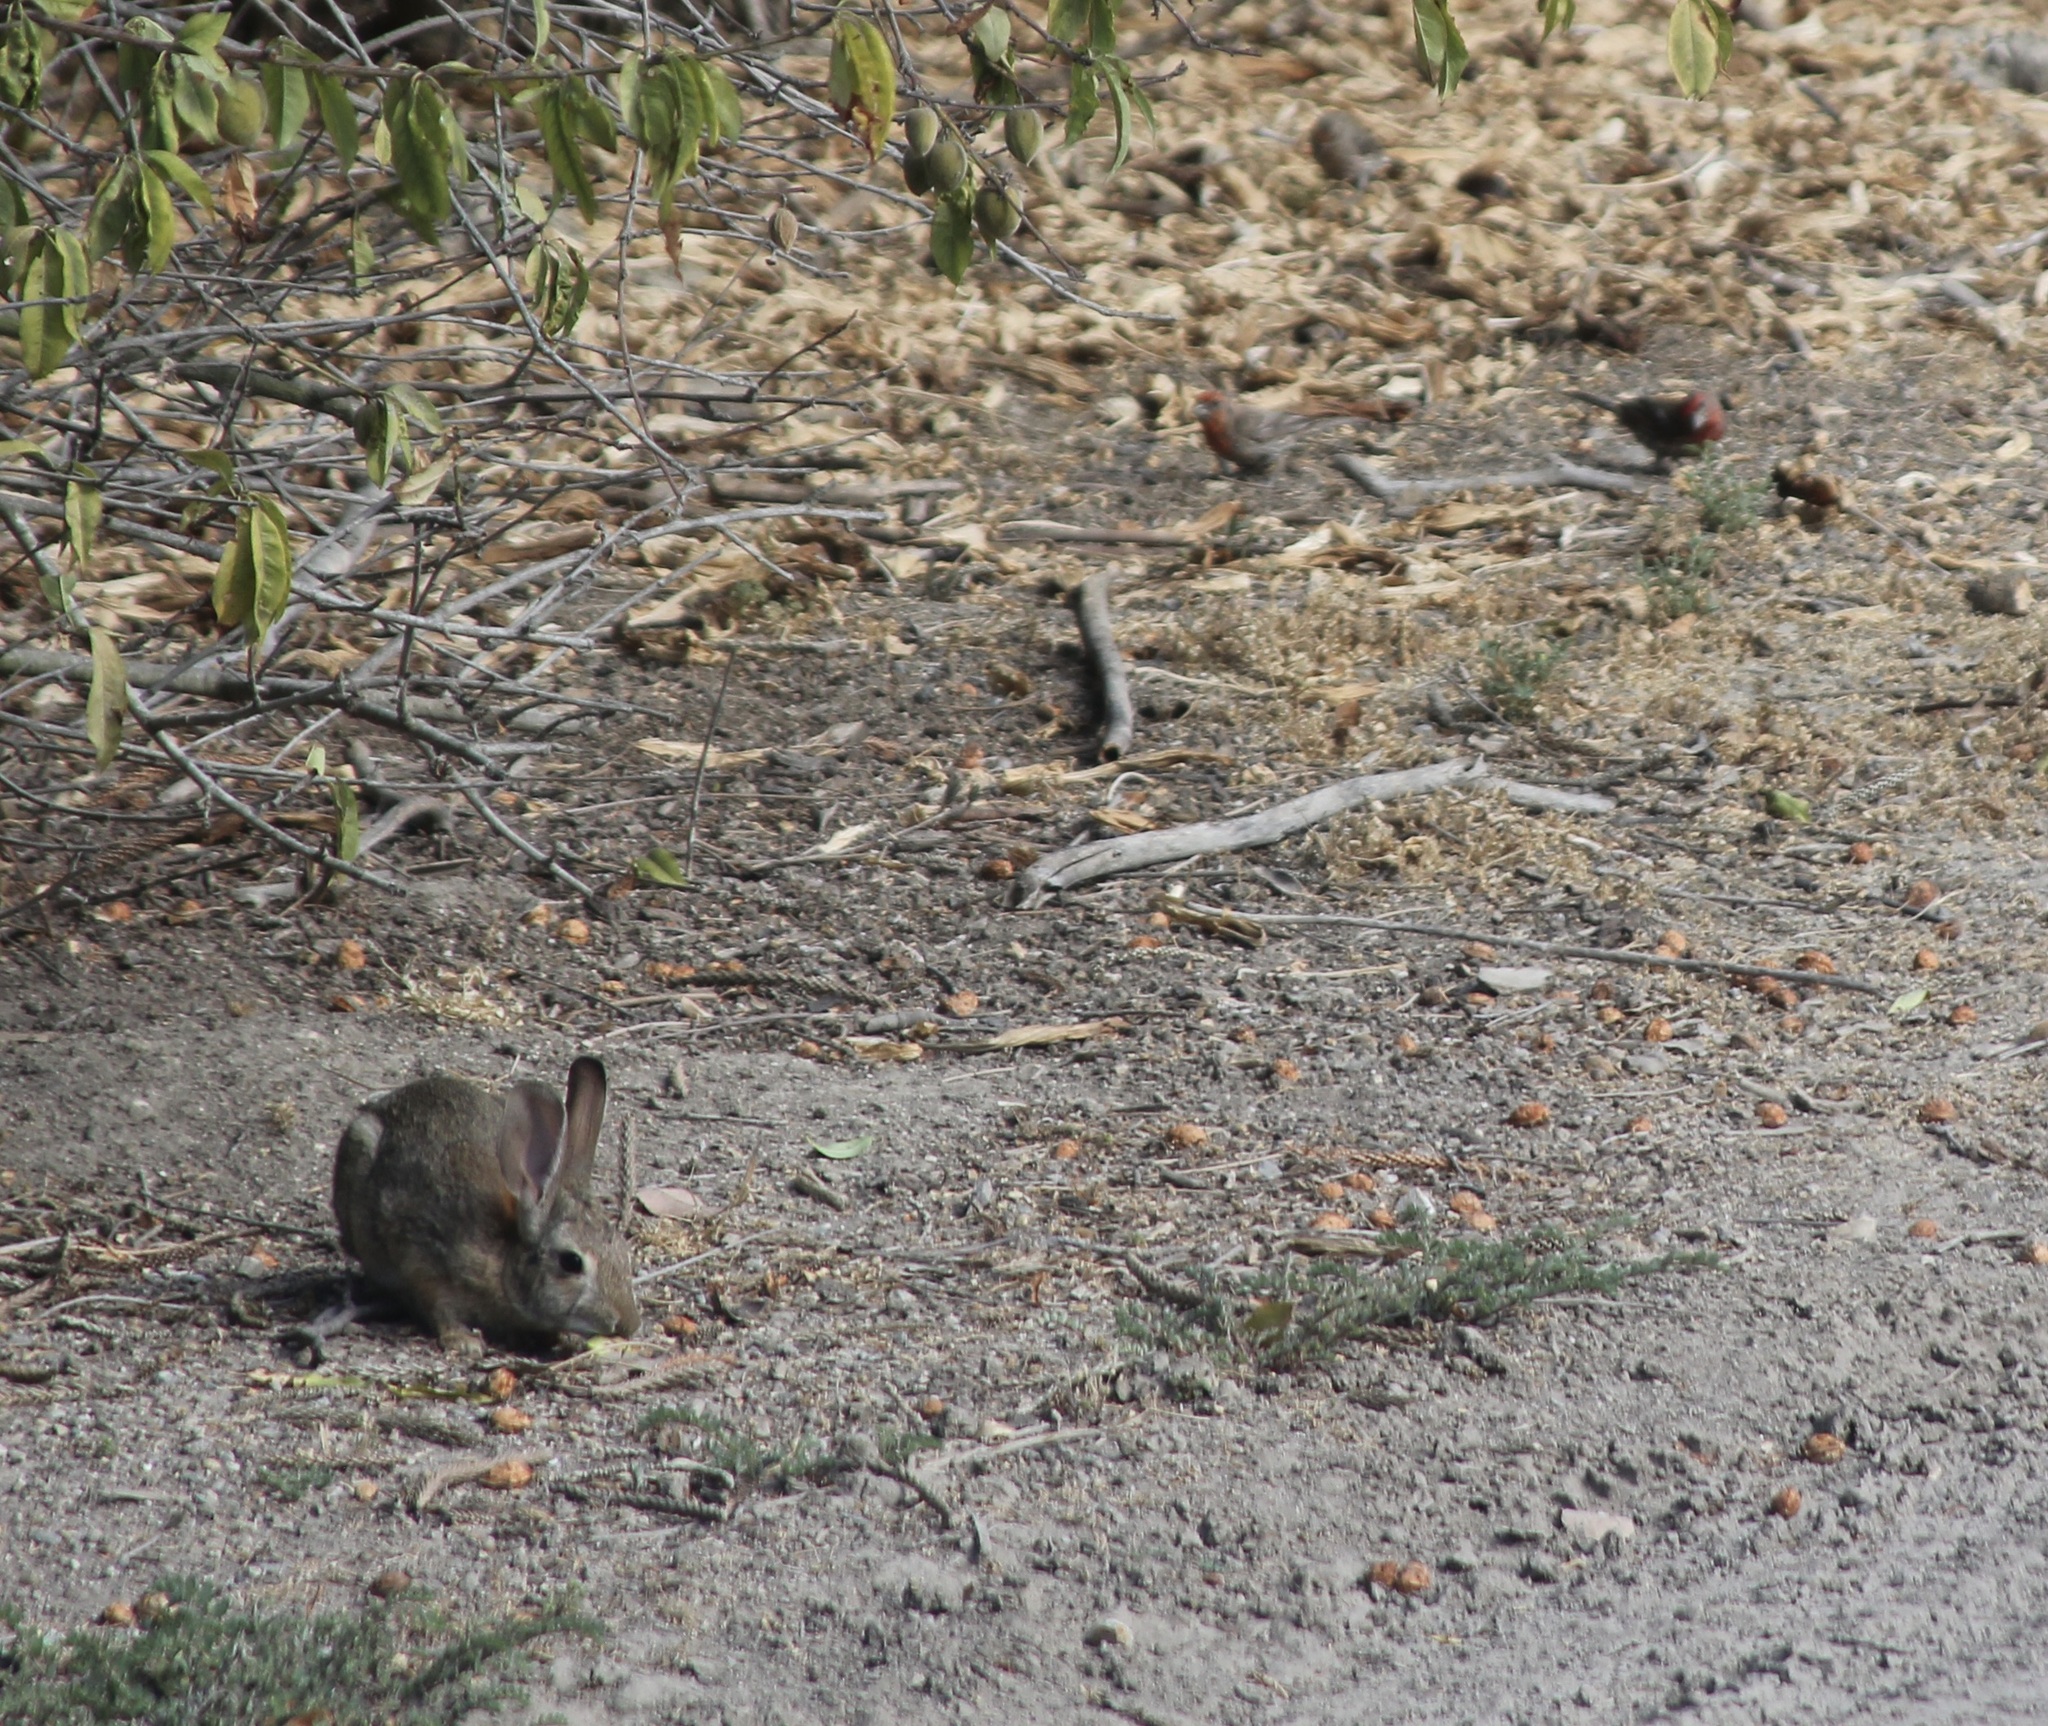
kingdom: Animalia
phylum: Chordata
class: Aves
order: Passeriformes
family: Fringillidae
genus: Haemorhous
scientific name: Haemorhous mexicanus
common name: House finch
